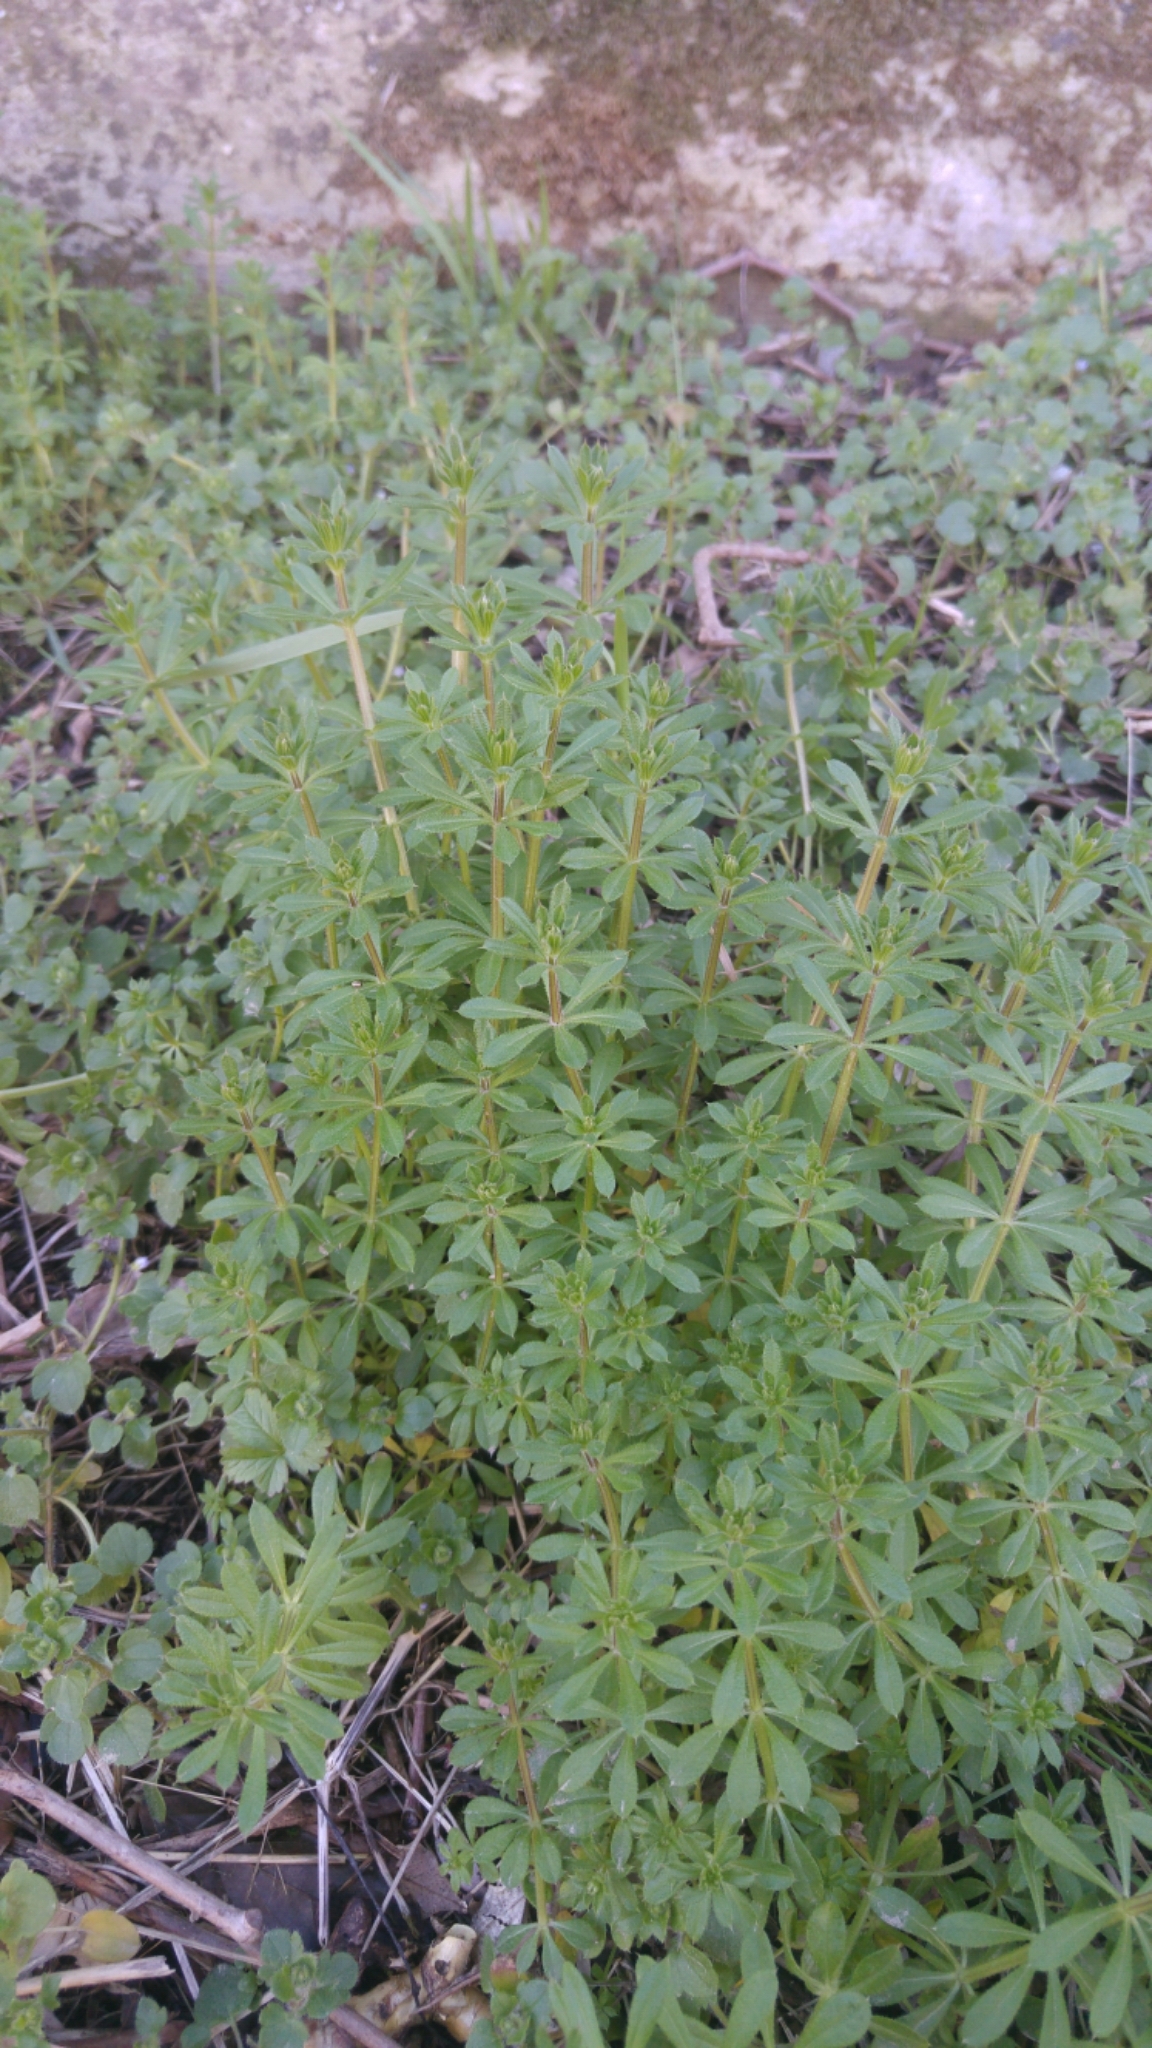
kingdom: Plantae
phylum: Tracheophyta
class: Magnoliopsida
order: Gentianales
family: Rubiaceae
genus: Galium
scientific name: Galium aparine
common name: Cleavers
